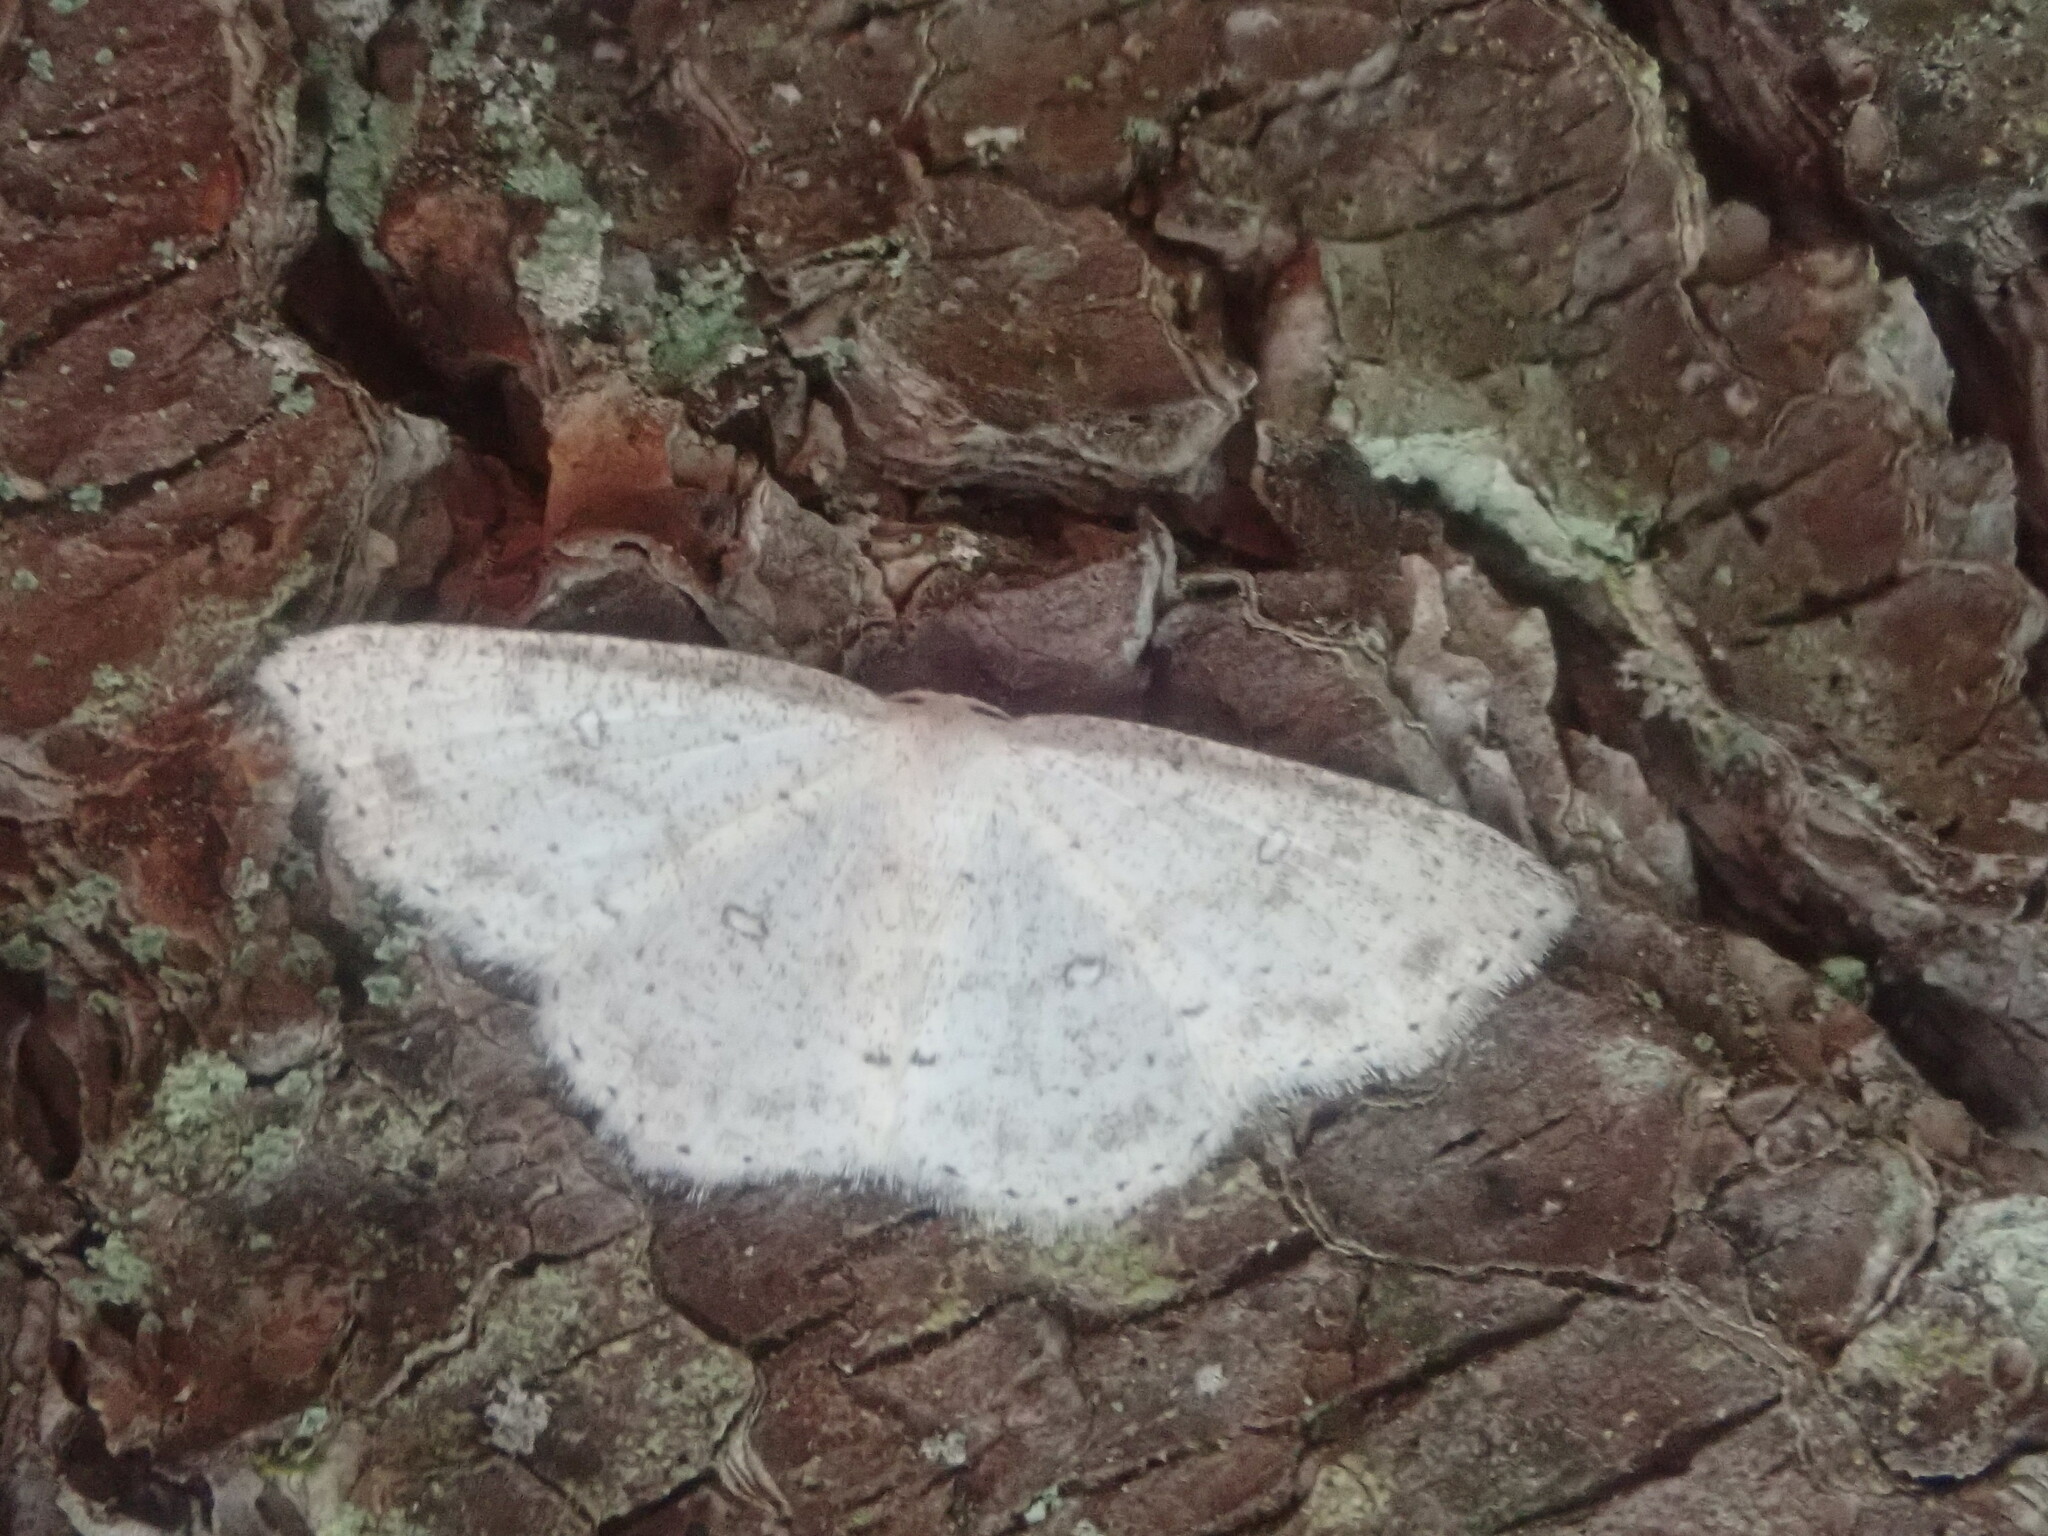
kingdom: Animalia
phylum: Arthropoda
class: Insecta
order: Lepidoptera
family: Geometridae
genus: Cyclophora
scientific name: Cyclophora pendulinaria
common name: Sweet fern geometer
